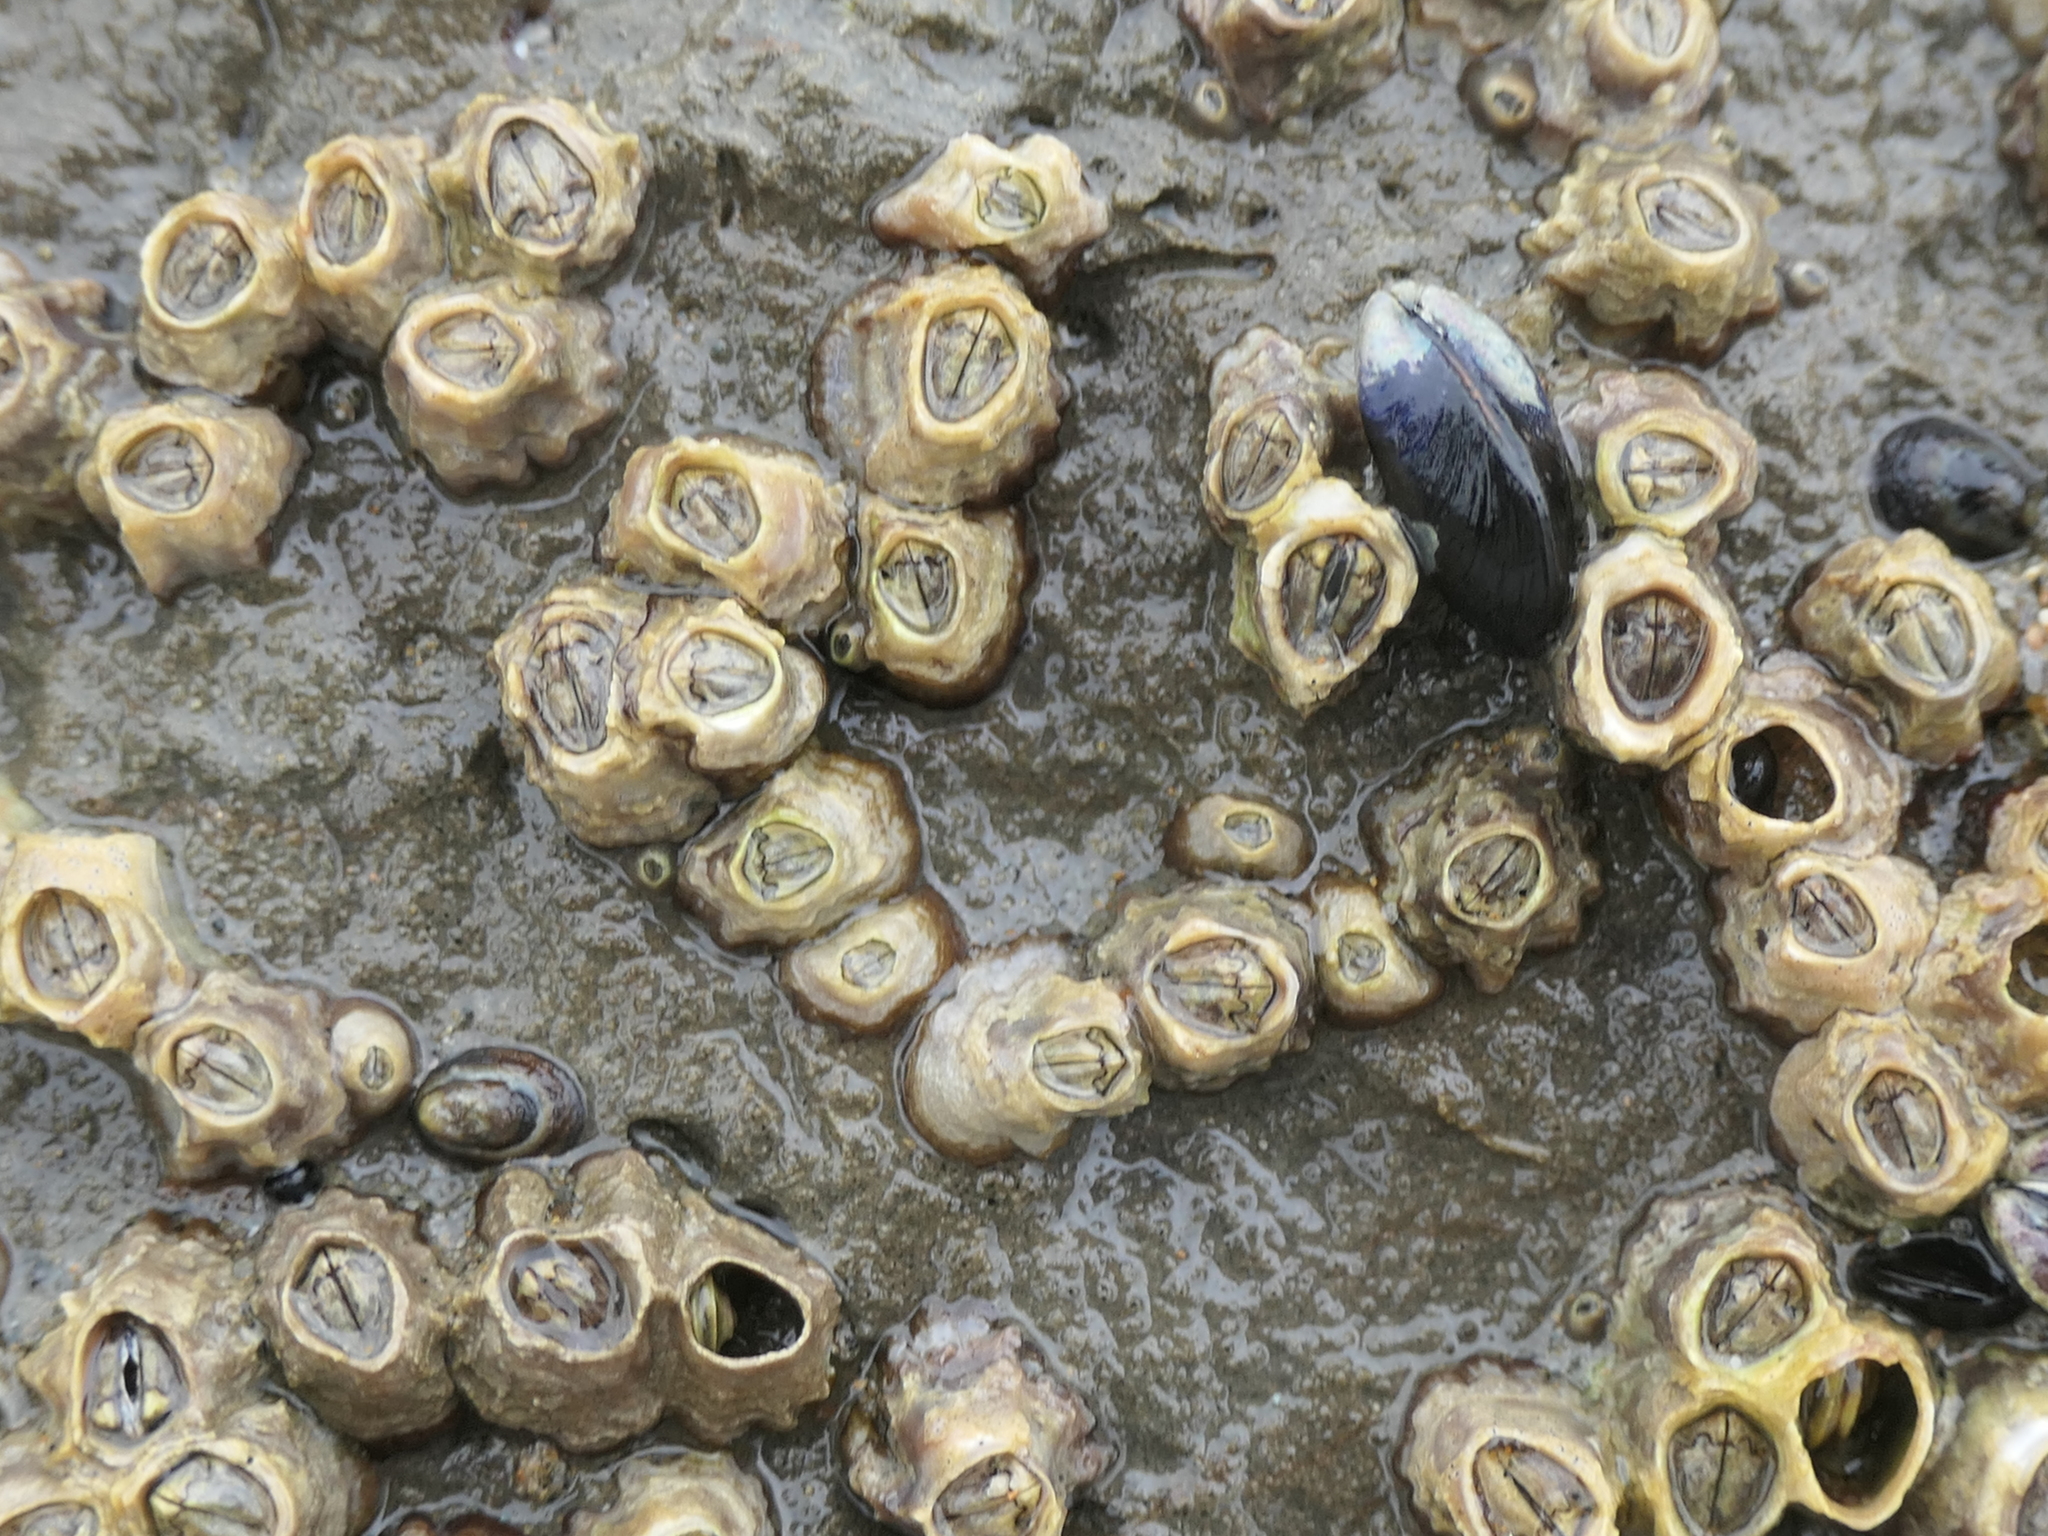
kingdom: Animalia
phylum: Arthropoda
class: Maxillopoda
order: Sessilia
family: Tetraclitidae
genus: Epopella
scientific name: Epopella plicata
